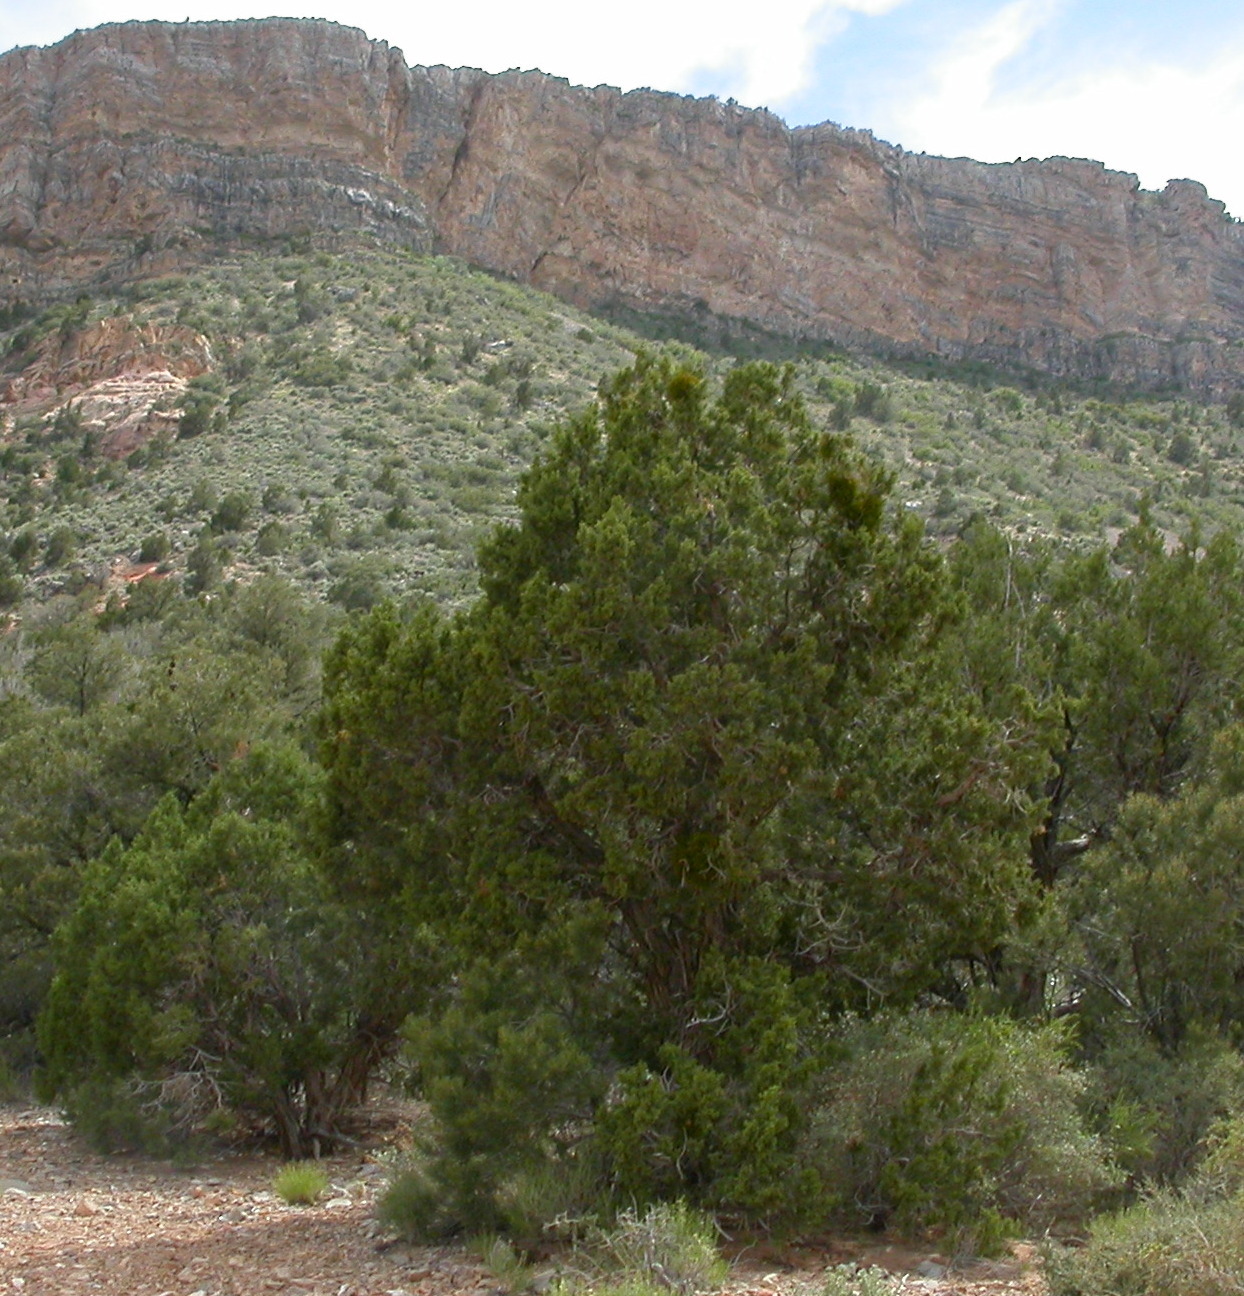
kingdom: Plantae
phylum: Tracheophyta
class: Pinopsida
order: Pinales
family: Cupressaceae
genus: Juniperus
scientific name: Juniperus osteosperma
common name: Utah juniper
